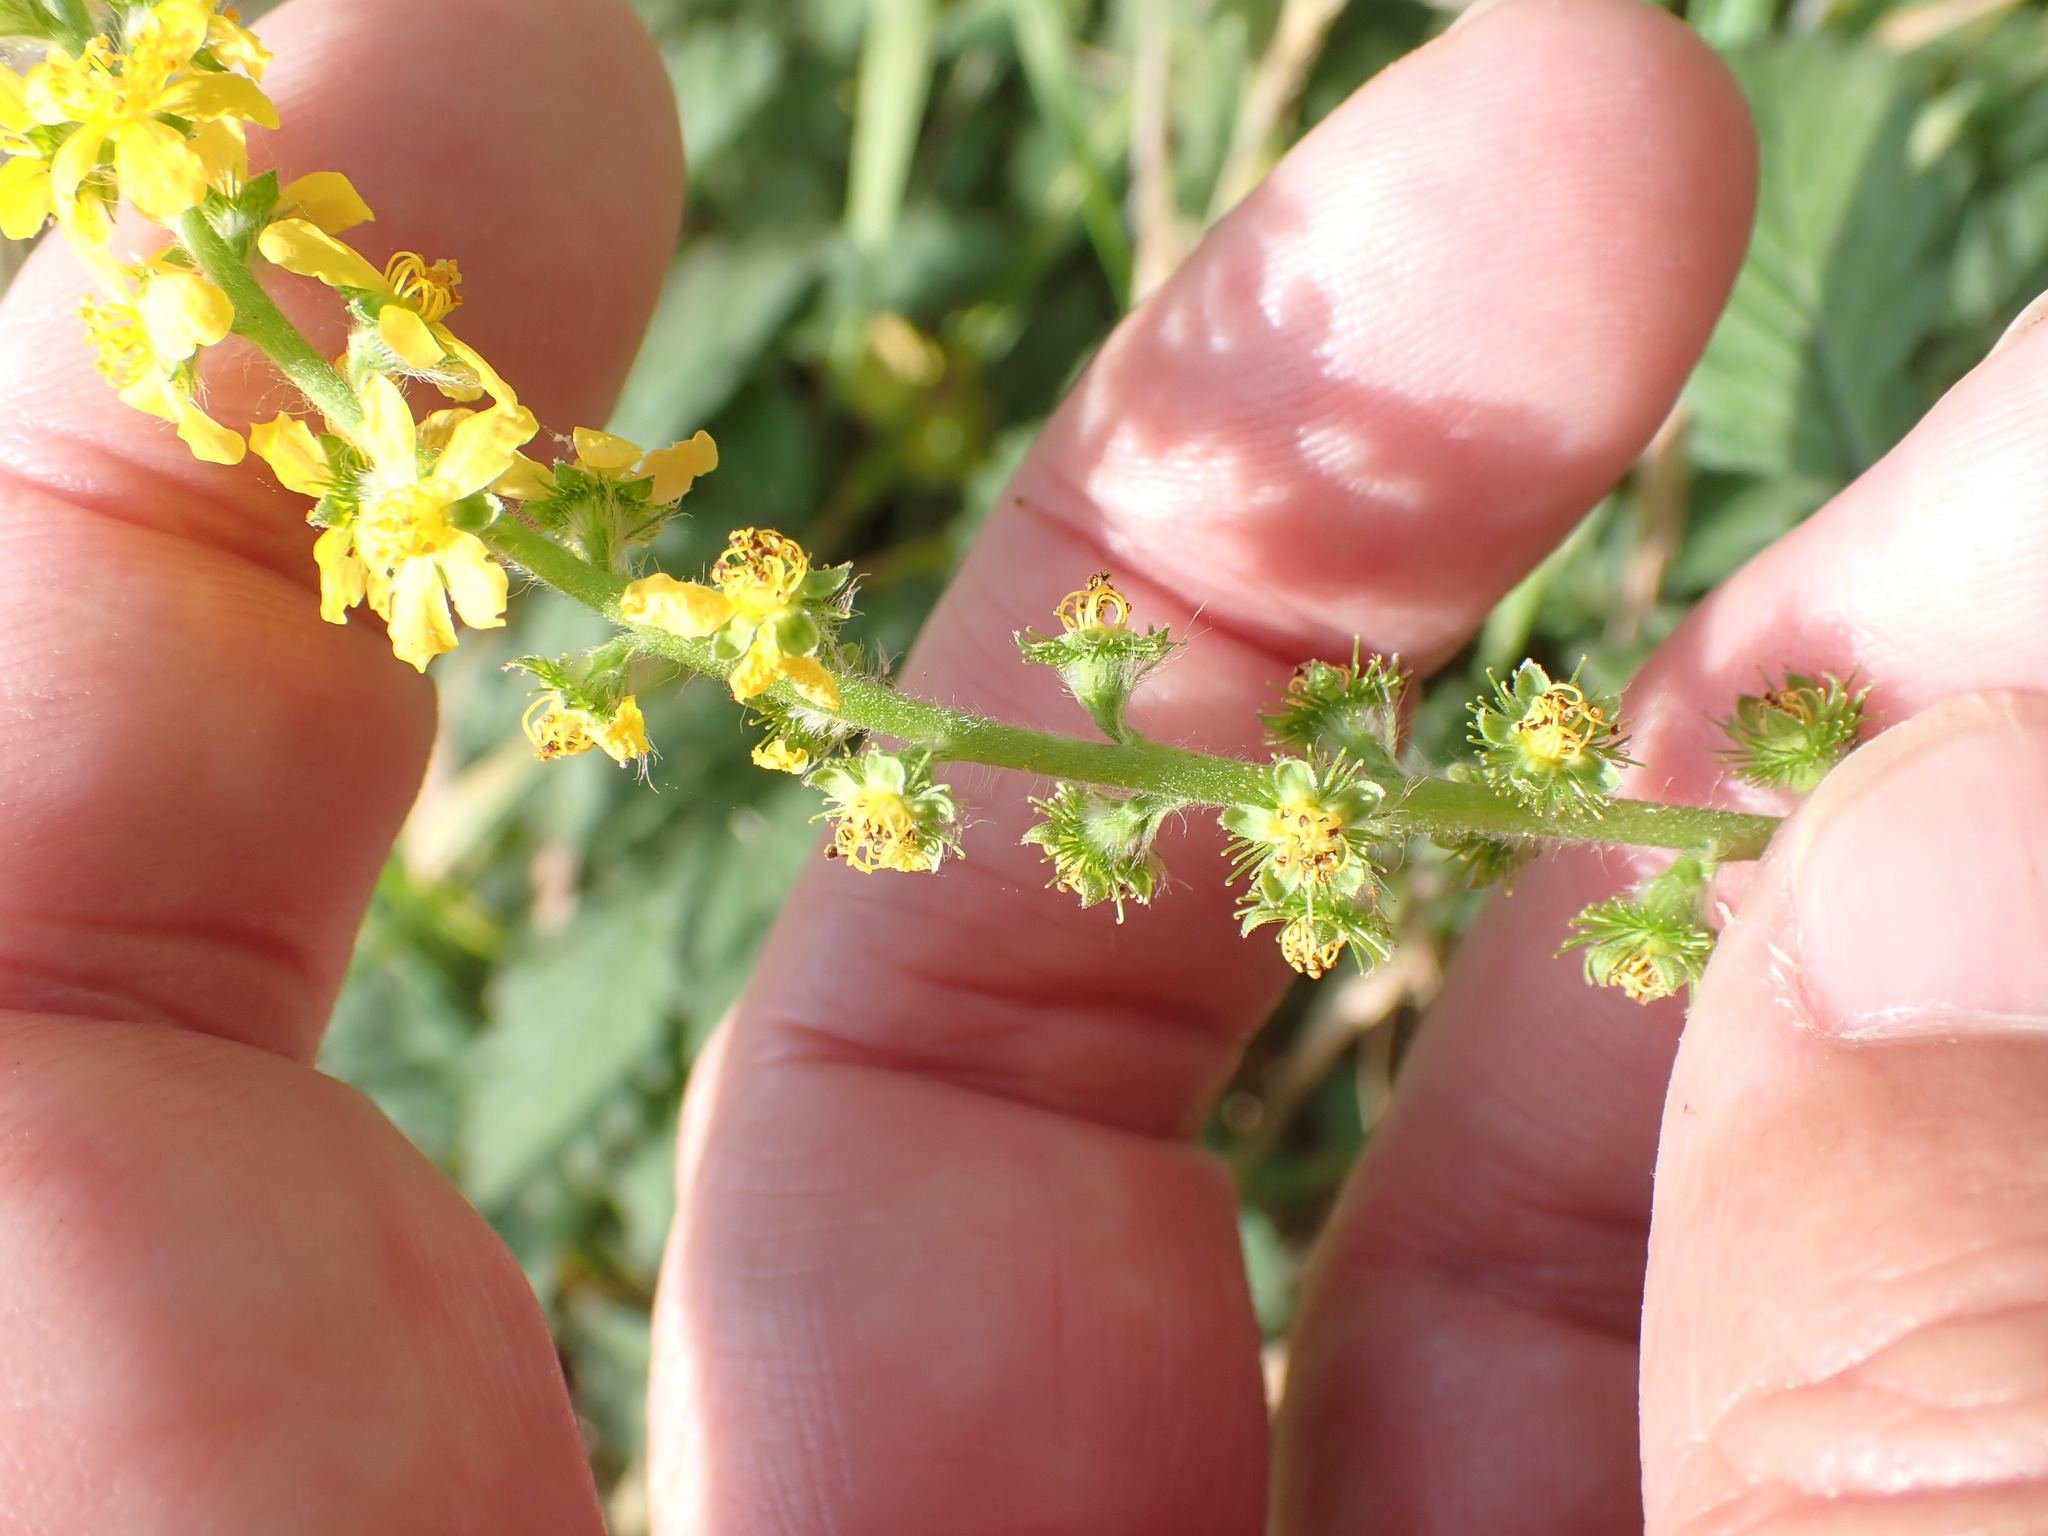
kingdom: Plantae
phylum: Tracheophyta
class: Magnoliopsida
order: Rosales
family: Rosaceae
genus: Agrimonia
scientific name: Agrimonia eupatoria
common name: Agrimony
